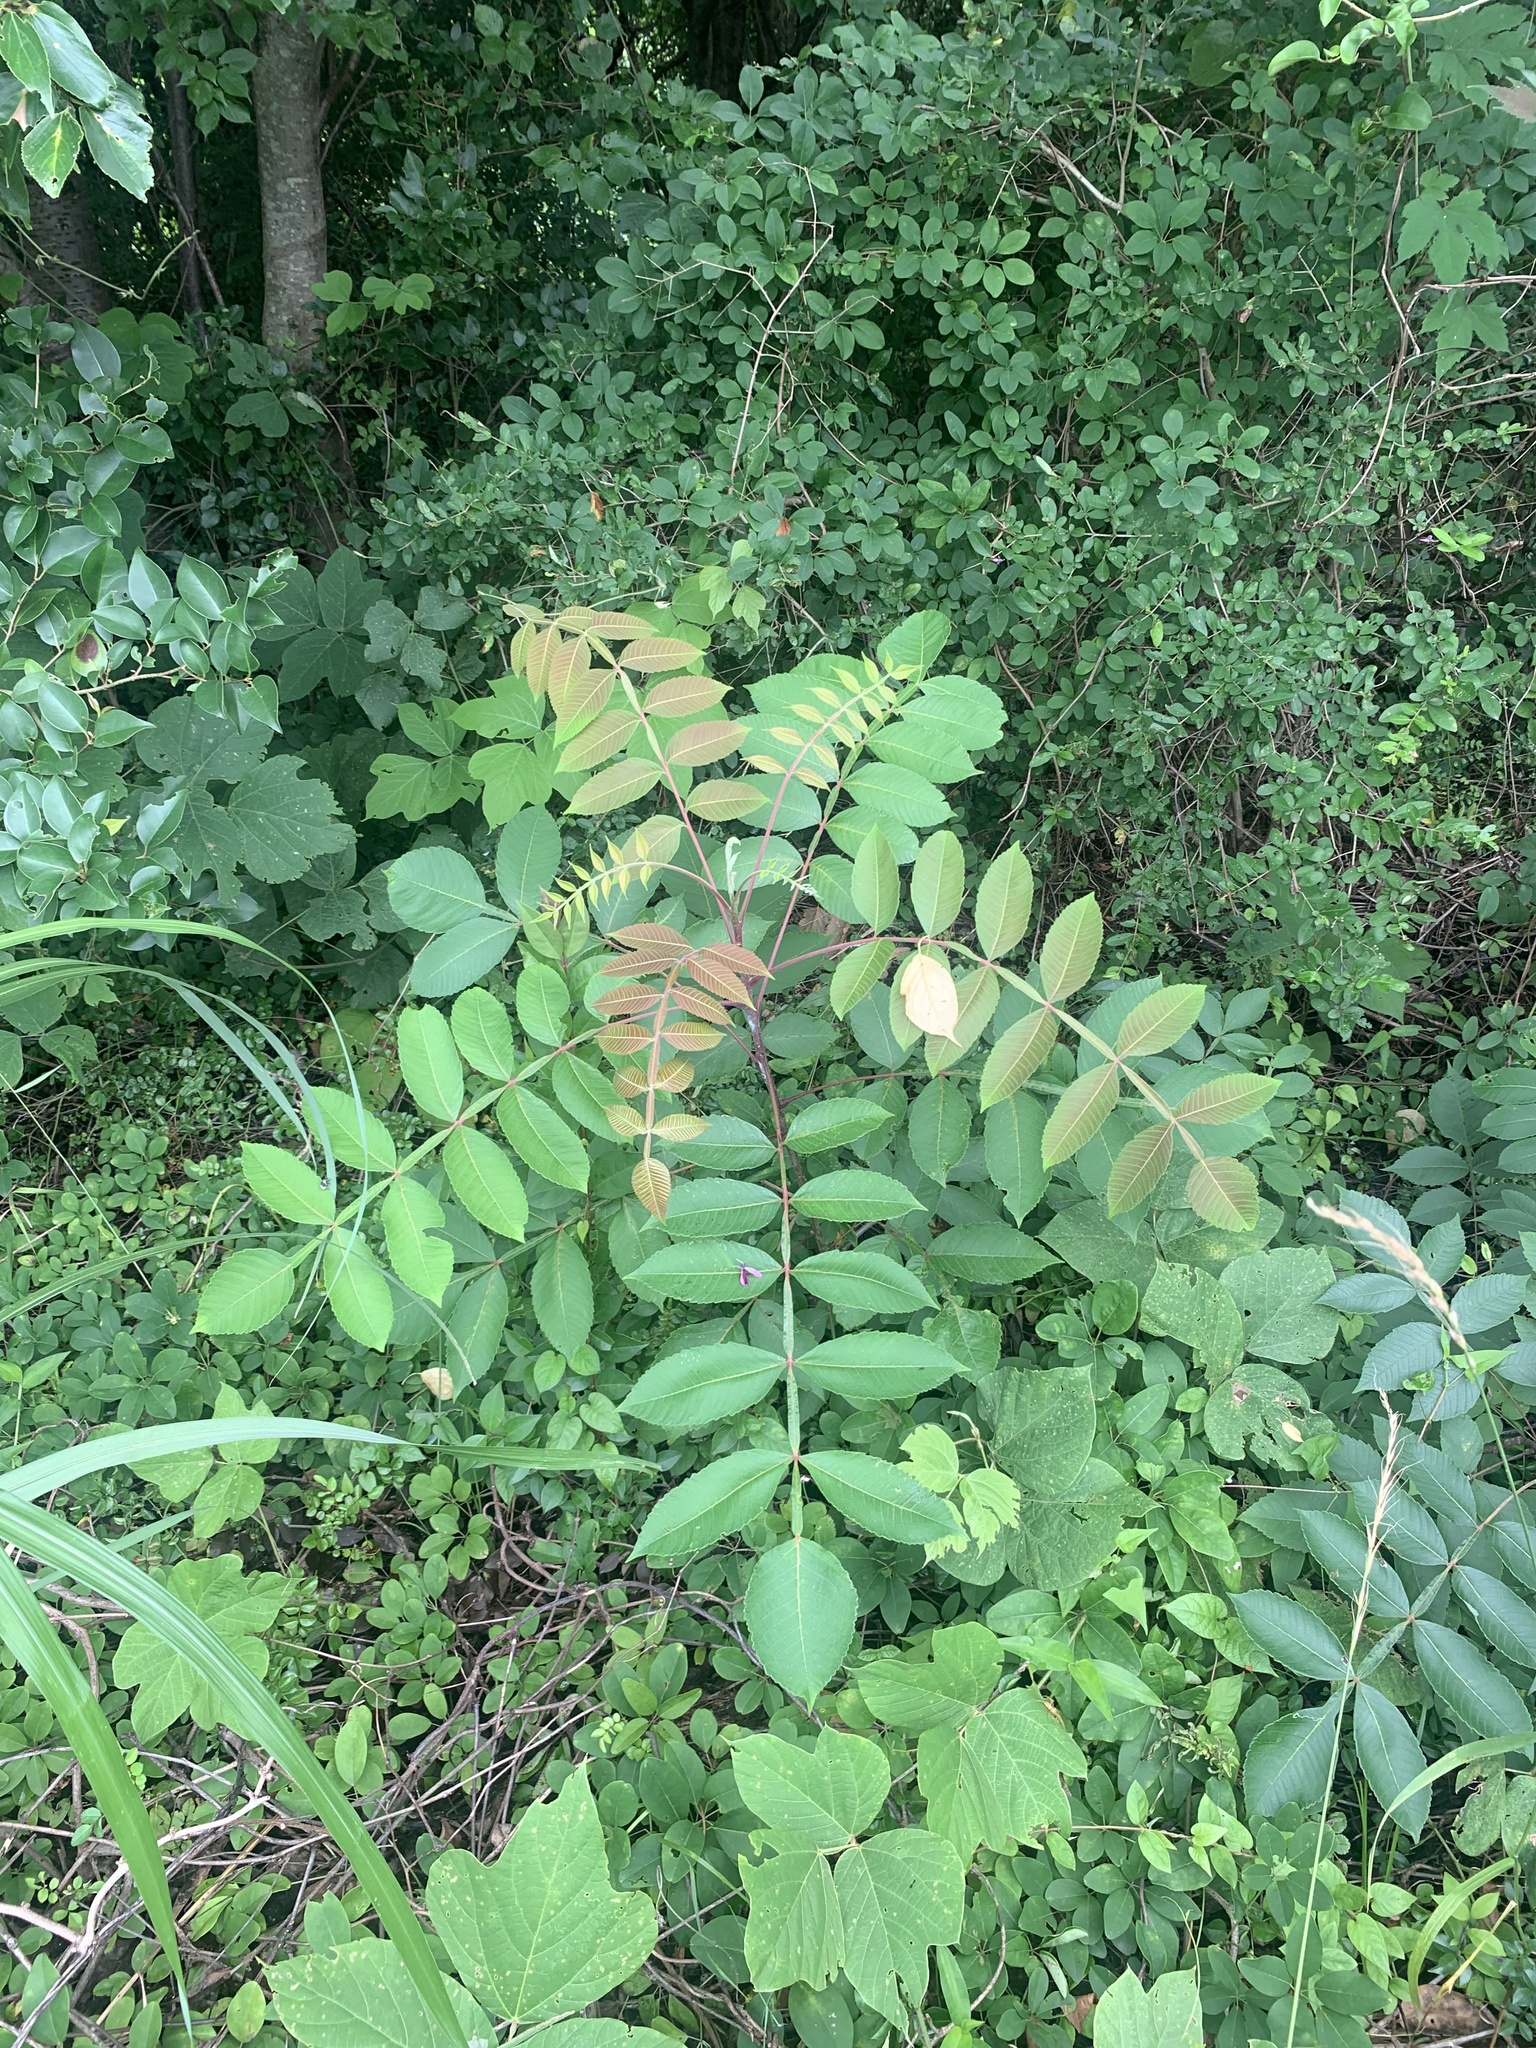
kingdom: Plantae
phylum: Tracheophyta
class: Magnoliopsida
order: Sapindales
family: Anacardiaceae
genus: Rhus
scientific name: Rhus chinensis
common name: Chinese gall
